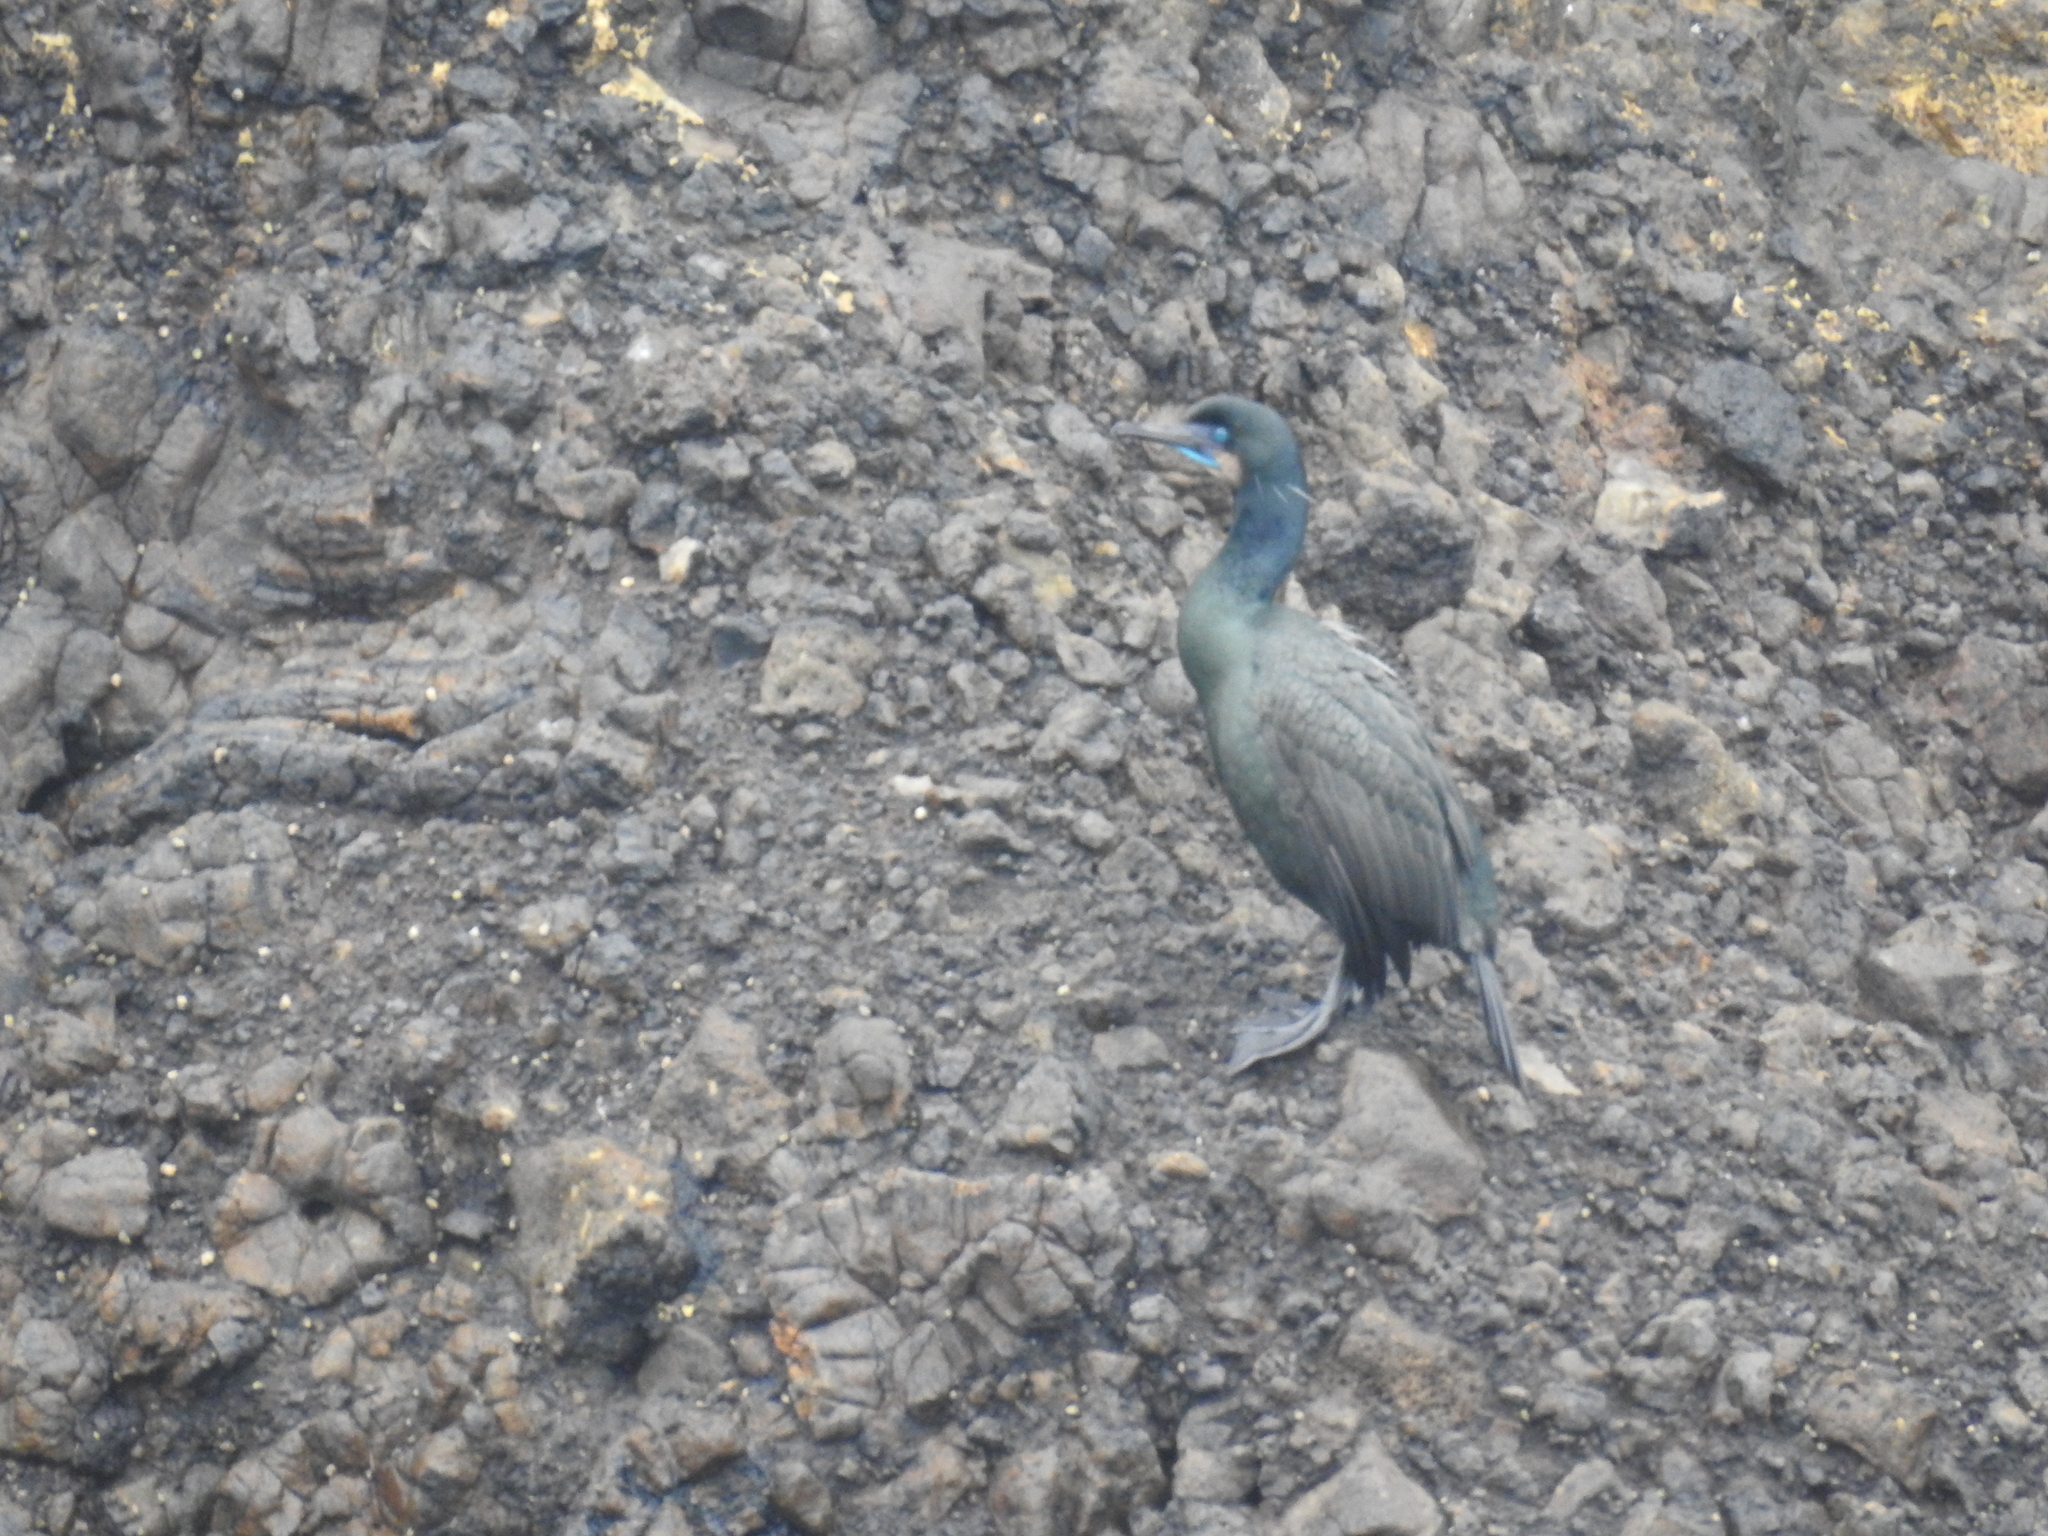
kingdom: Animalia
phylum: Chordata
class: Aves
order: Suliformes
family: Phalacrocoracidae
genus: Urile
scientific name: Urile penicillatus
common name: Brandt's cormorant
